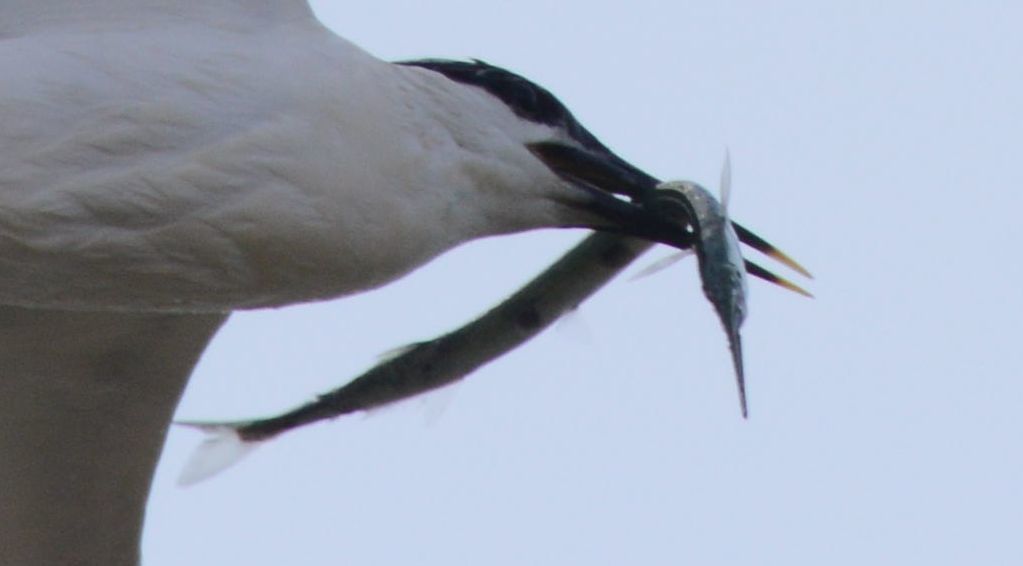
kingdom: Animalia
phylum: Chordata
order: Beloniformes
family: Belonidae
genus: Belone
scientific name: Belone belone
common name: Garfish
